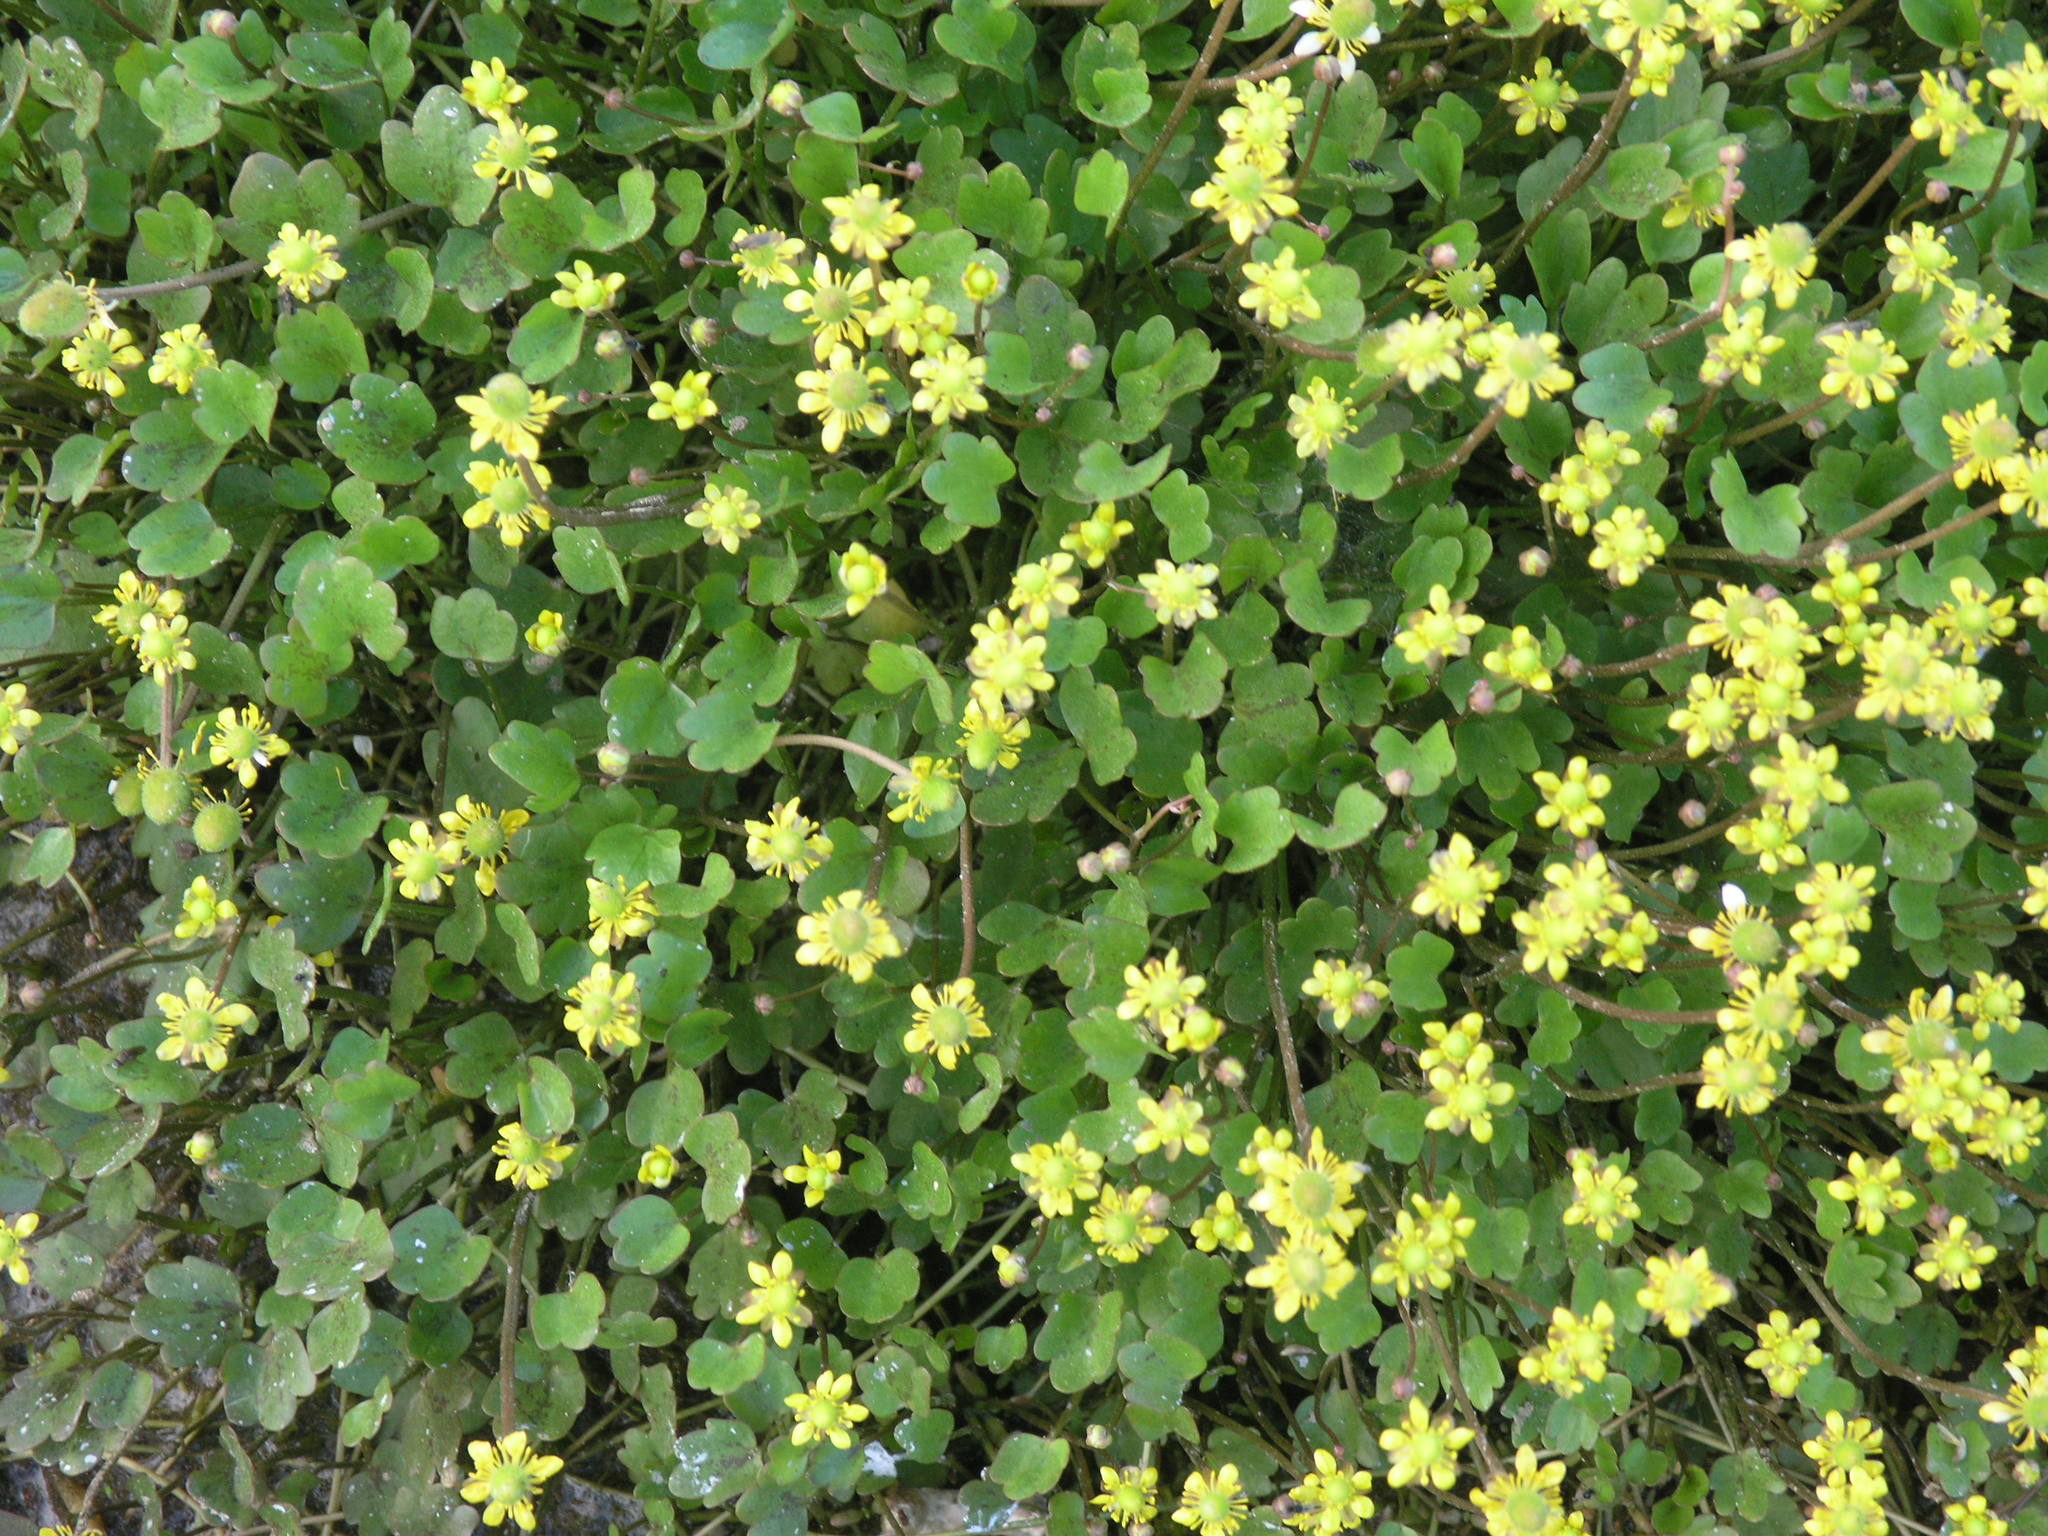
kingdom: Plantae
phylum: Tracheophyta
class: Magnoliopsida
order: Ranunculales
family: Ranunculaceae
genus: Halerpestes
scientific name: Halerpestes sarmentosus
